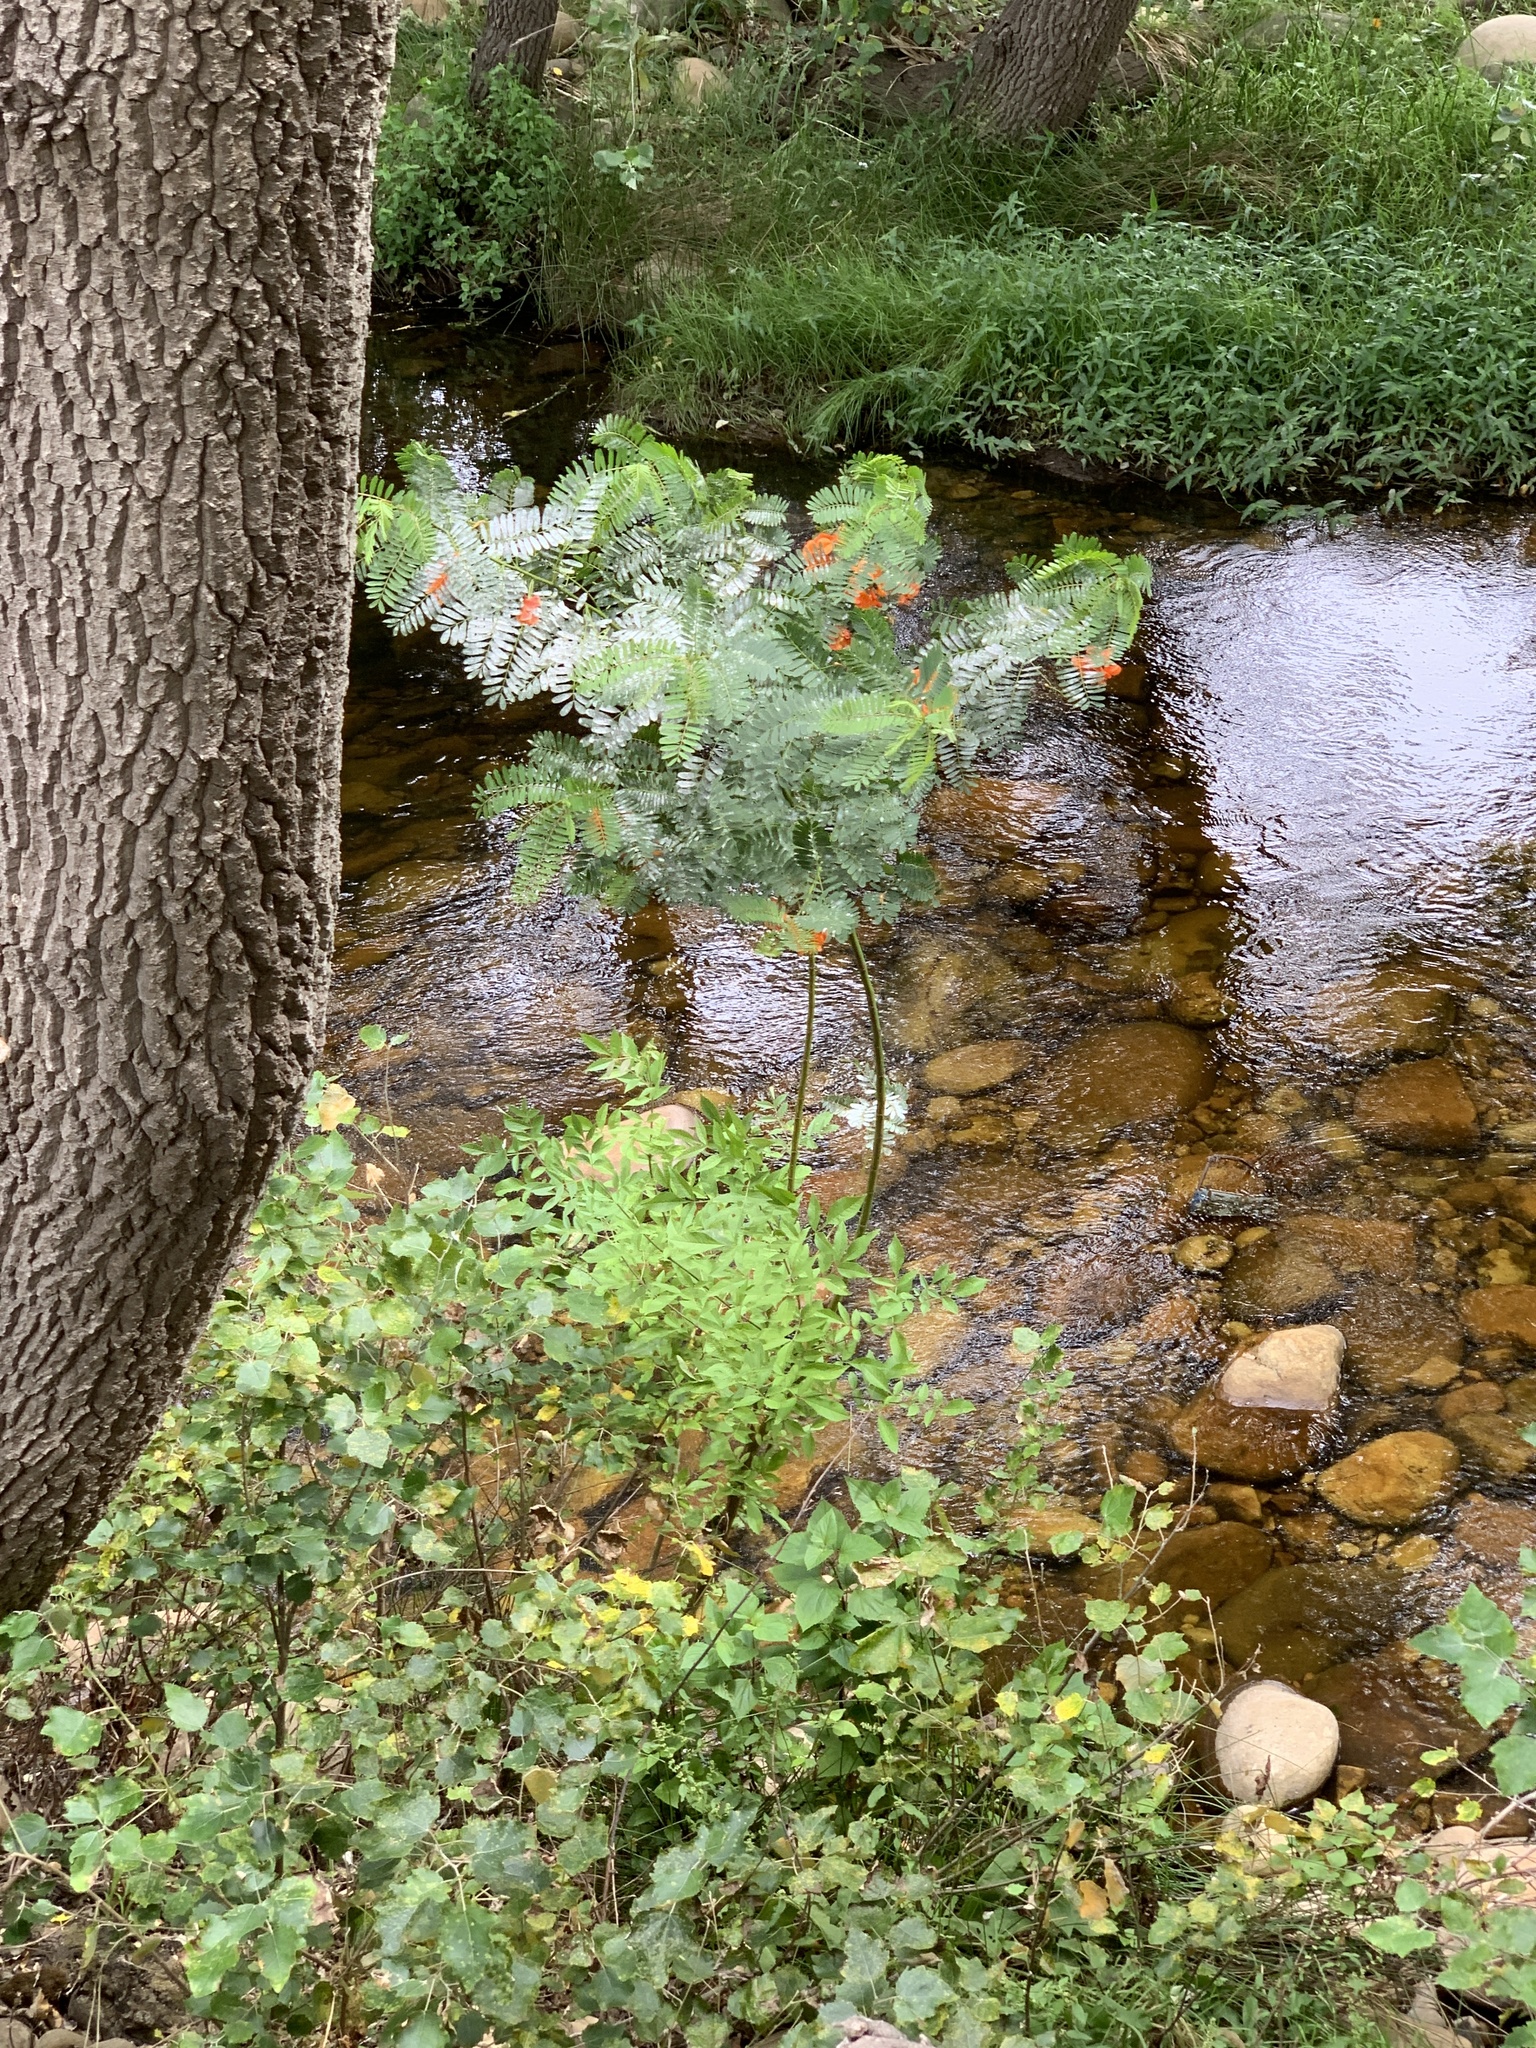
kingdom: Plantae
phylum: Tracheophyta
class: Magnoliopsida
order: Fabales
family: Fabaceae
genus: Sesbania
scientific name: Sesbania punicea
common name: Rattlebox
